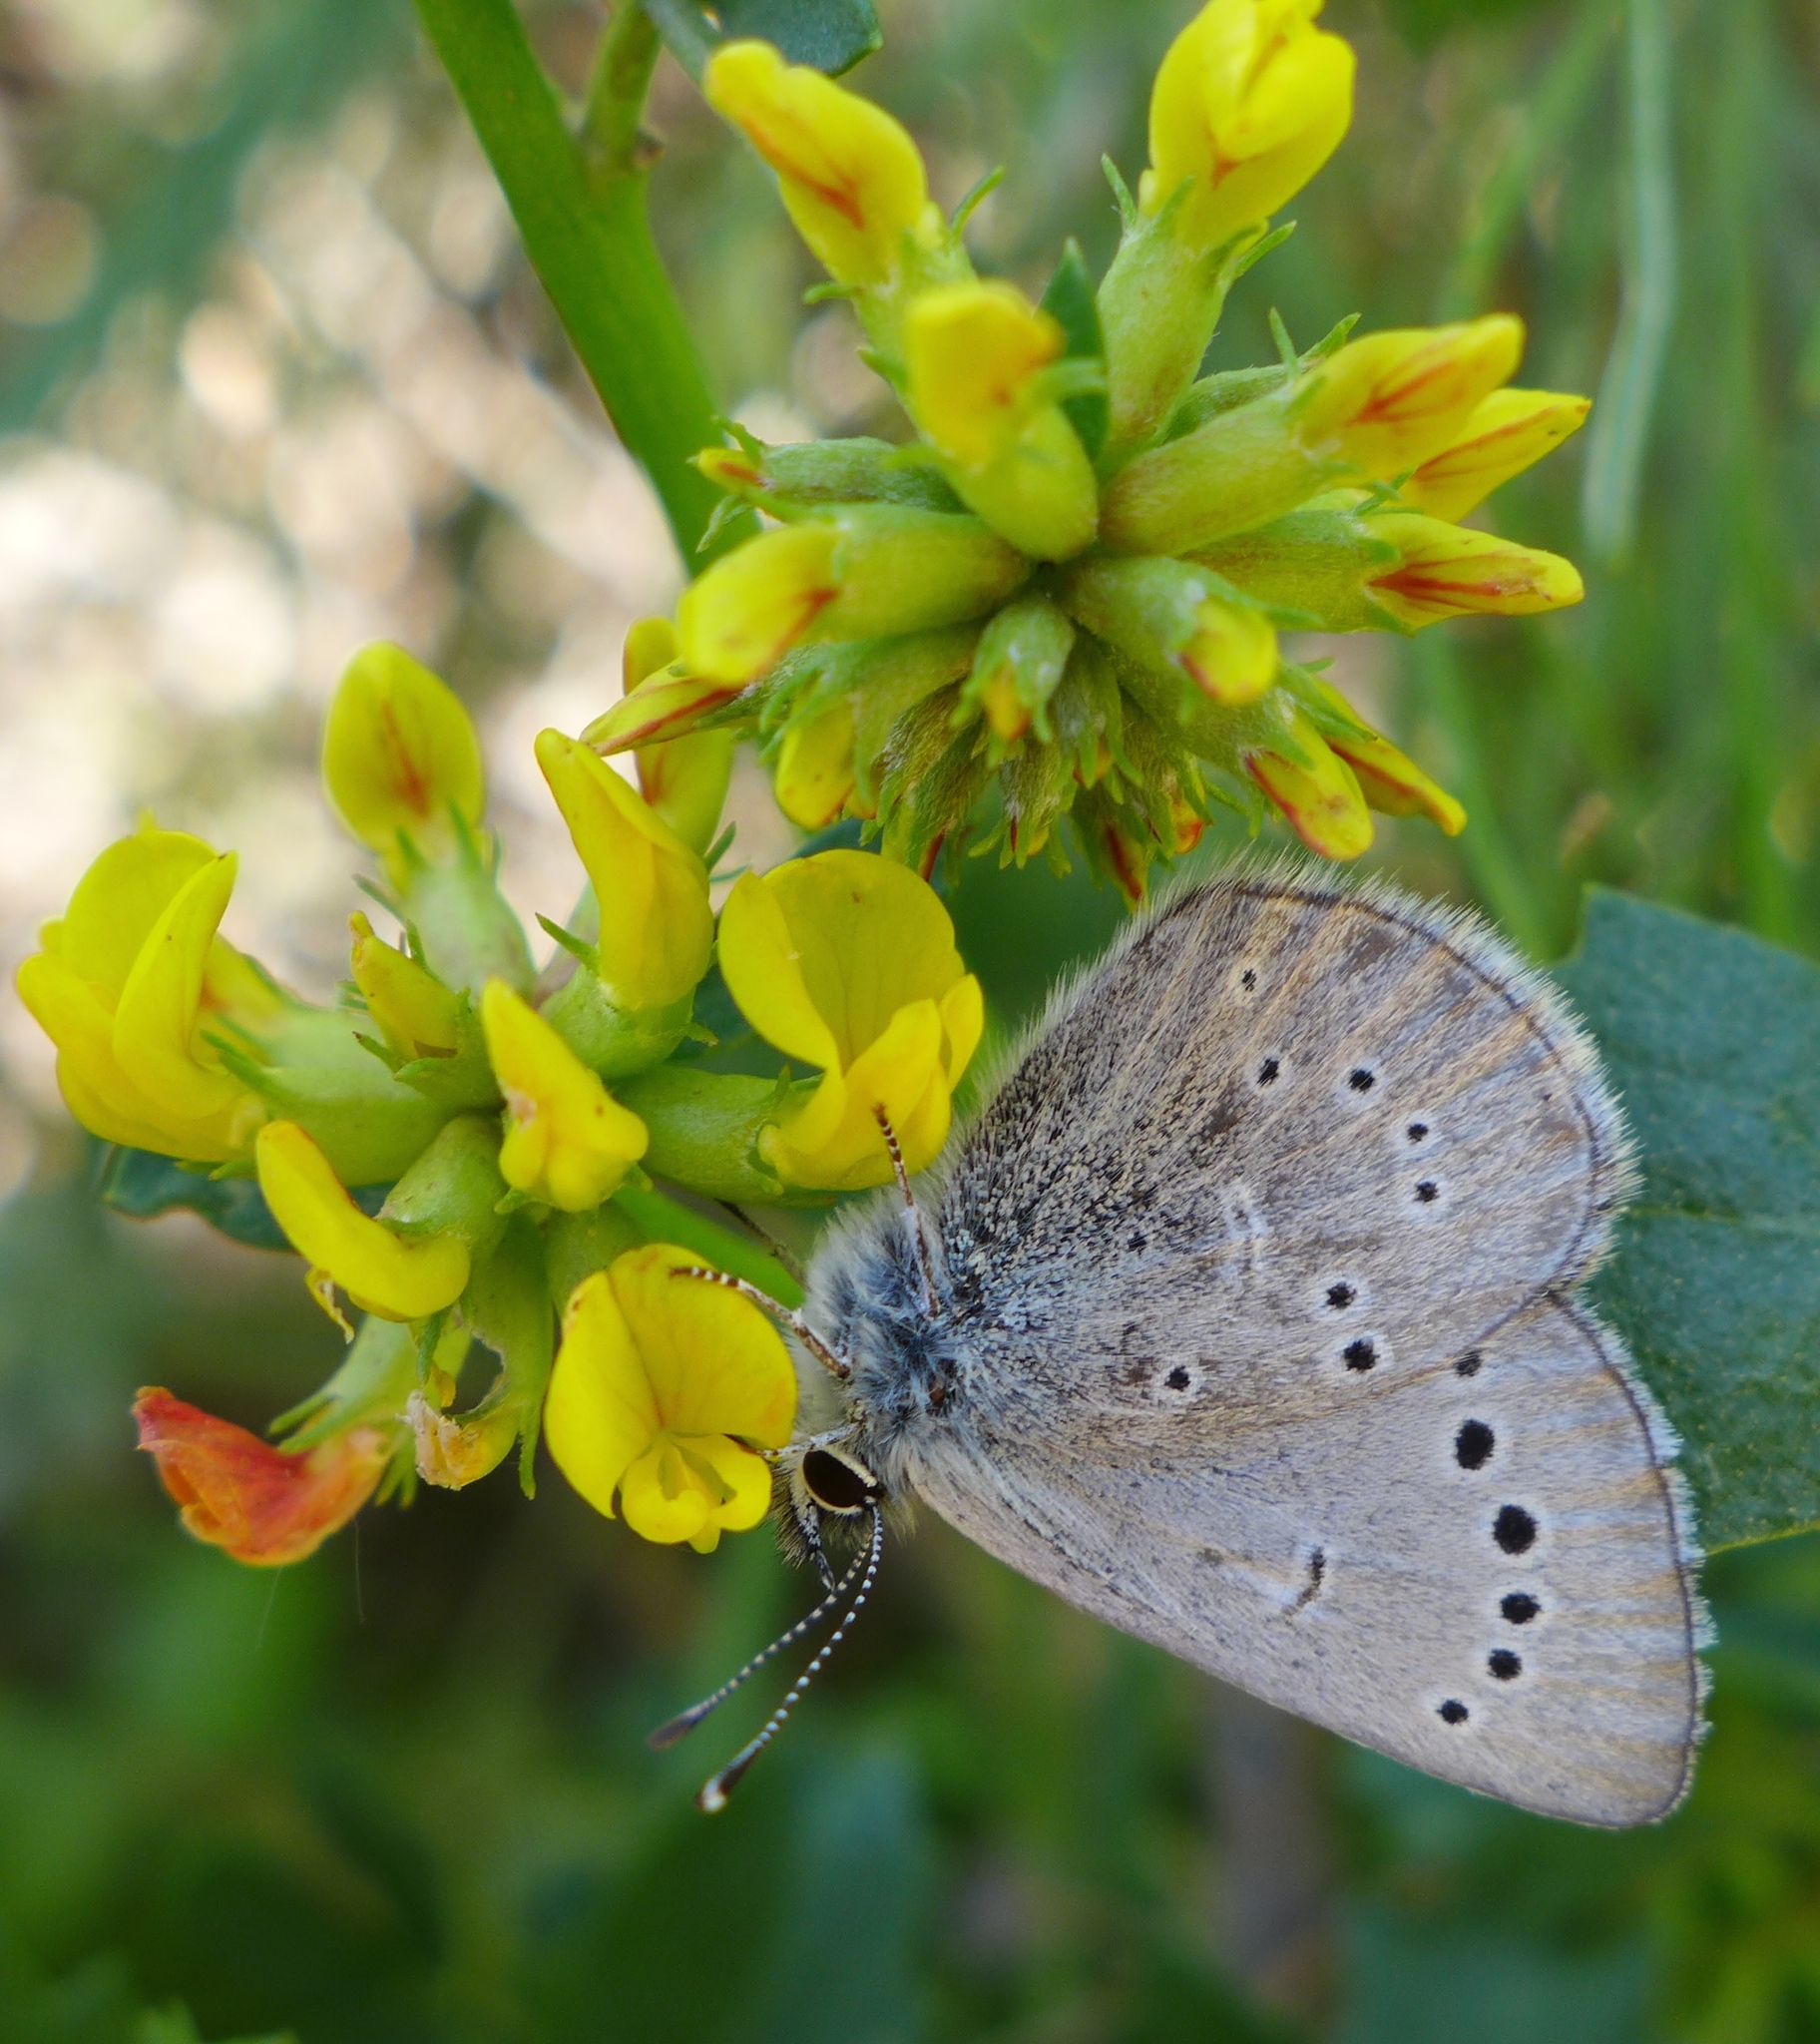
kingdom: Animalia
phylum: Arthropoda
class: Insecta
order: Lepidoptera
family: Lycaenidae
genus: Glaucopsyche
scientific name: Glaucopsyche lygdamus
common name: Silvery blue
